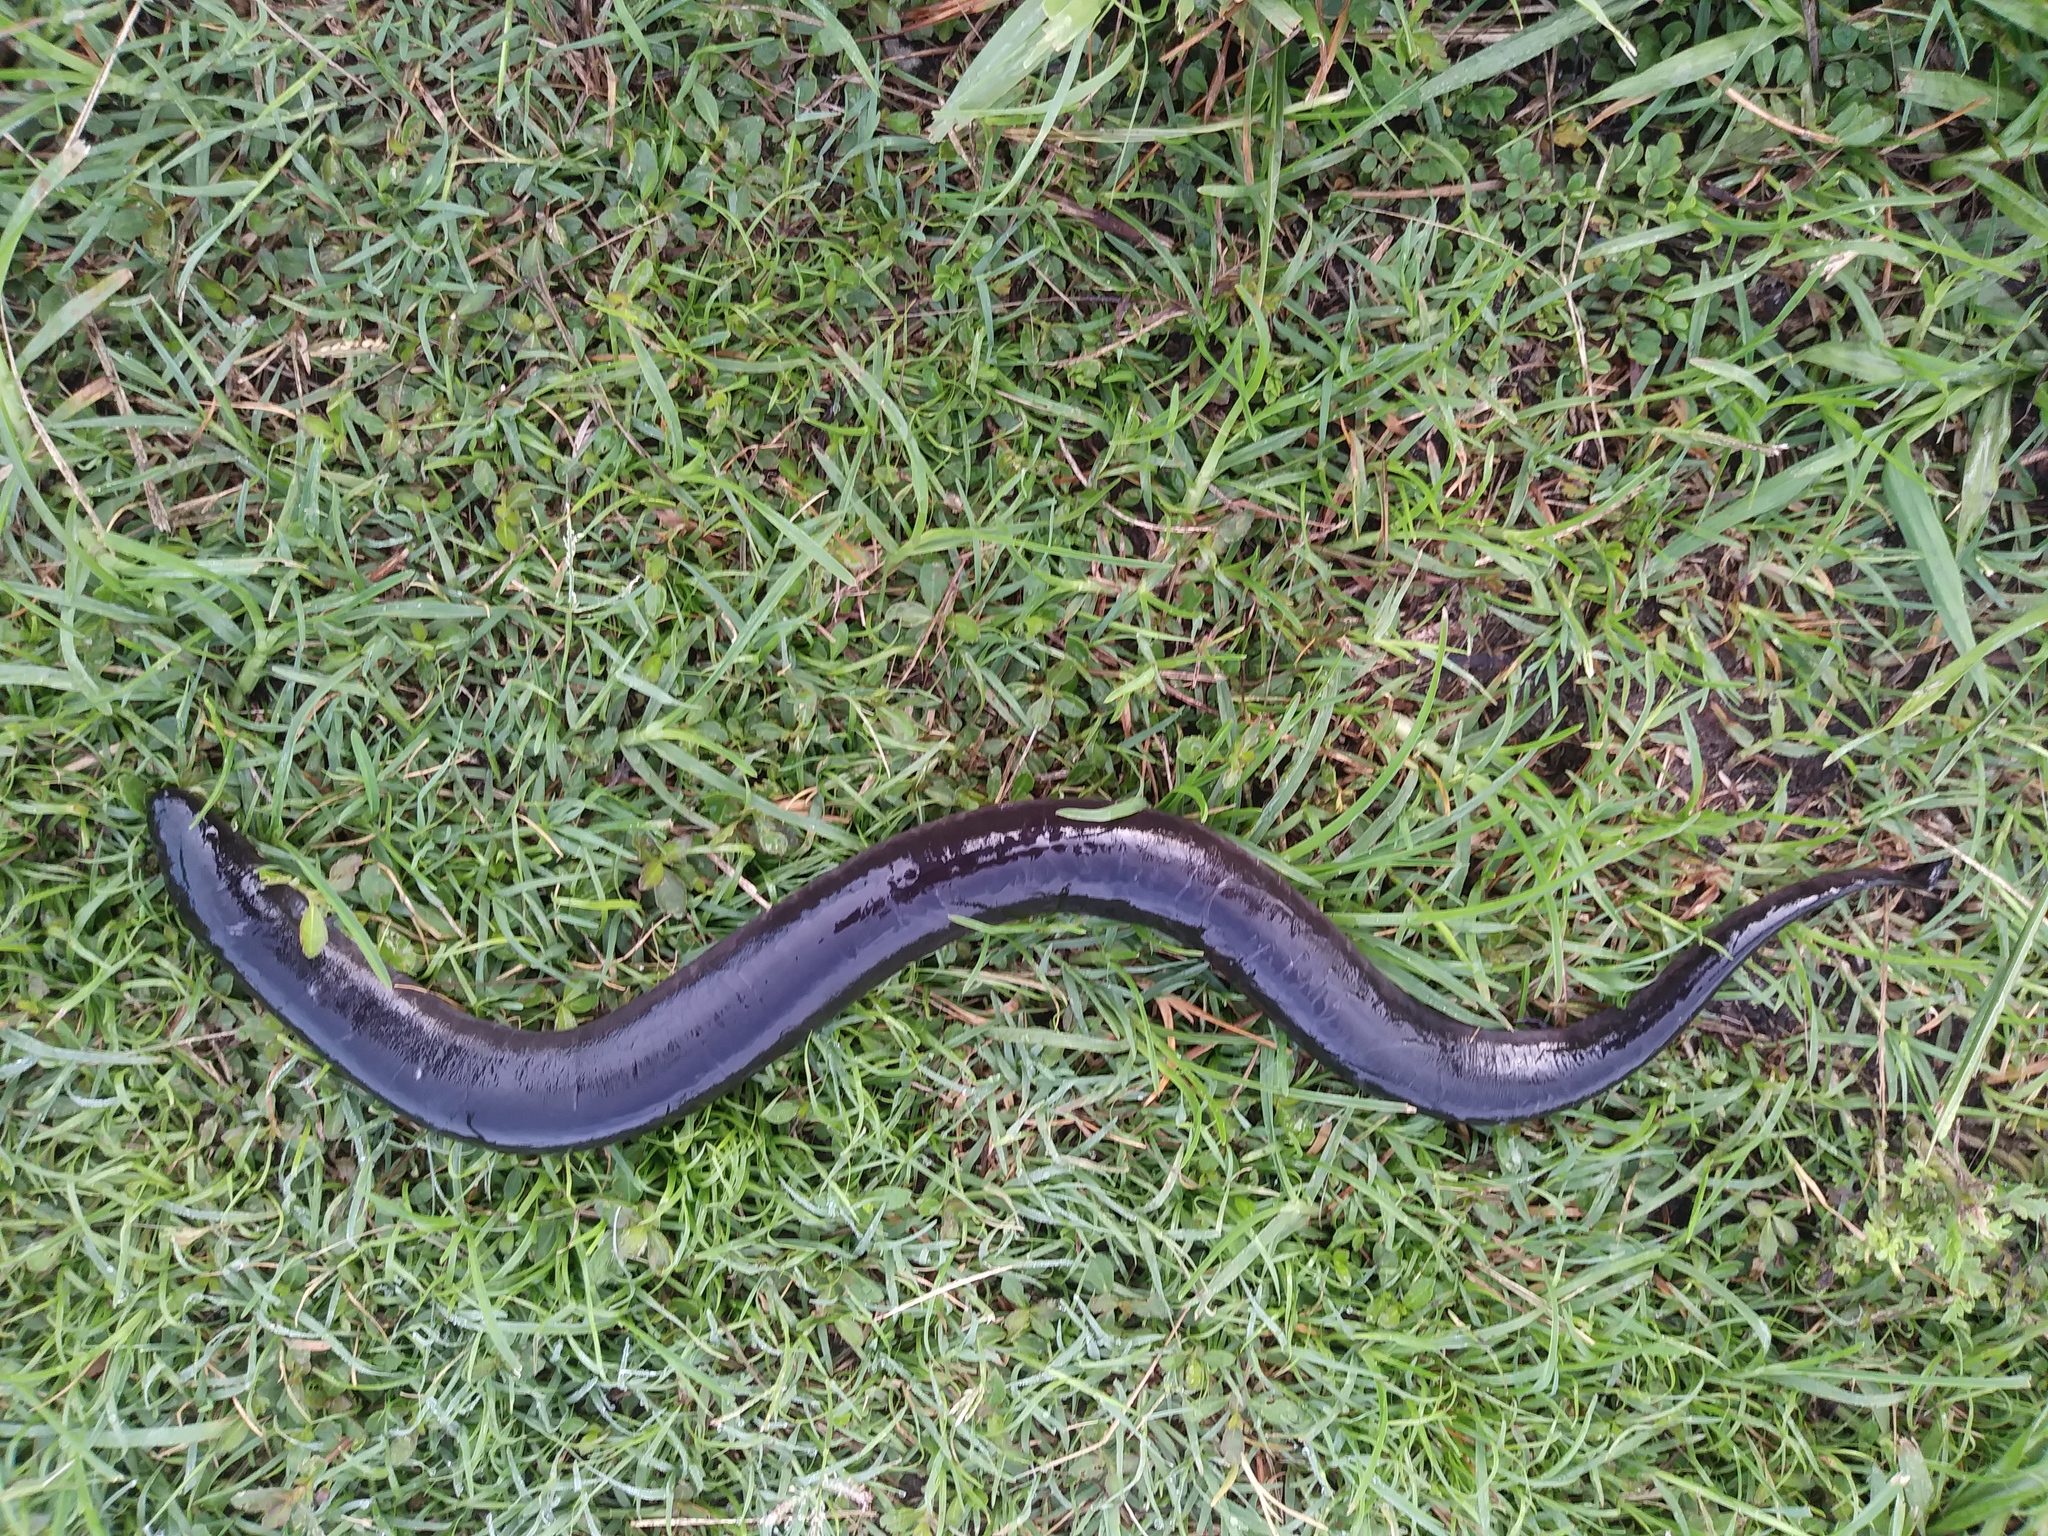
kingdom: Animalia
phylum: Chordata
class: Amphibia
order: Caudata
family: Amphiumidae
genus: Amphiuma
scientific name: Amphiuma means
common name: Two-toed amphiuma
